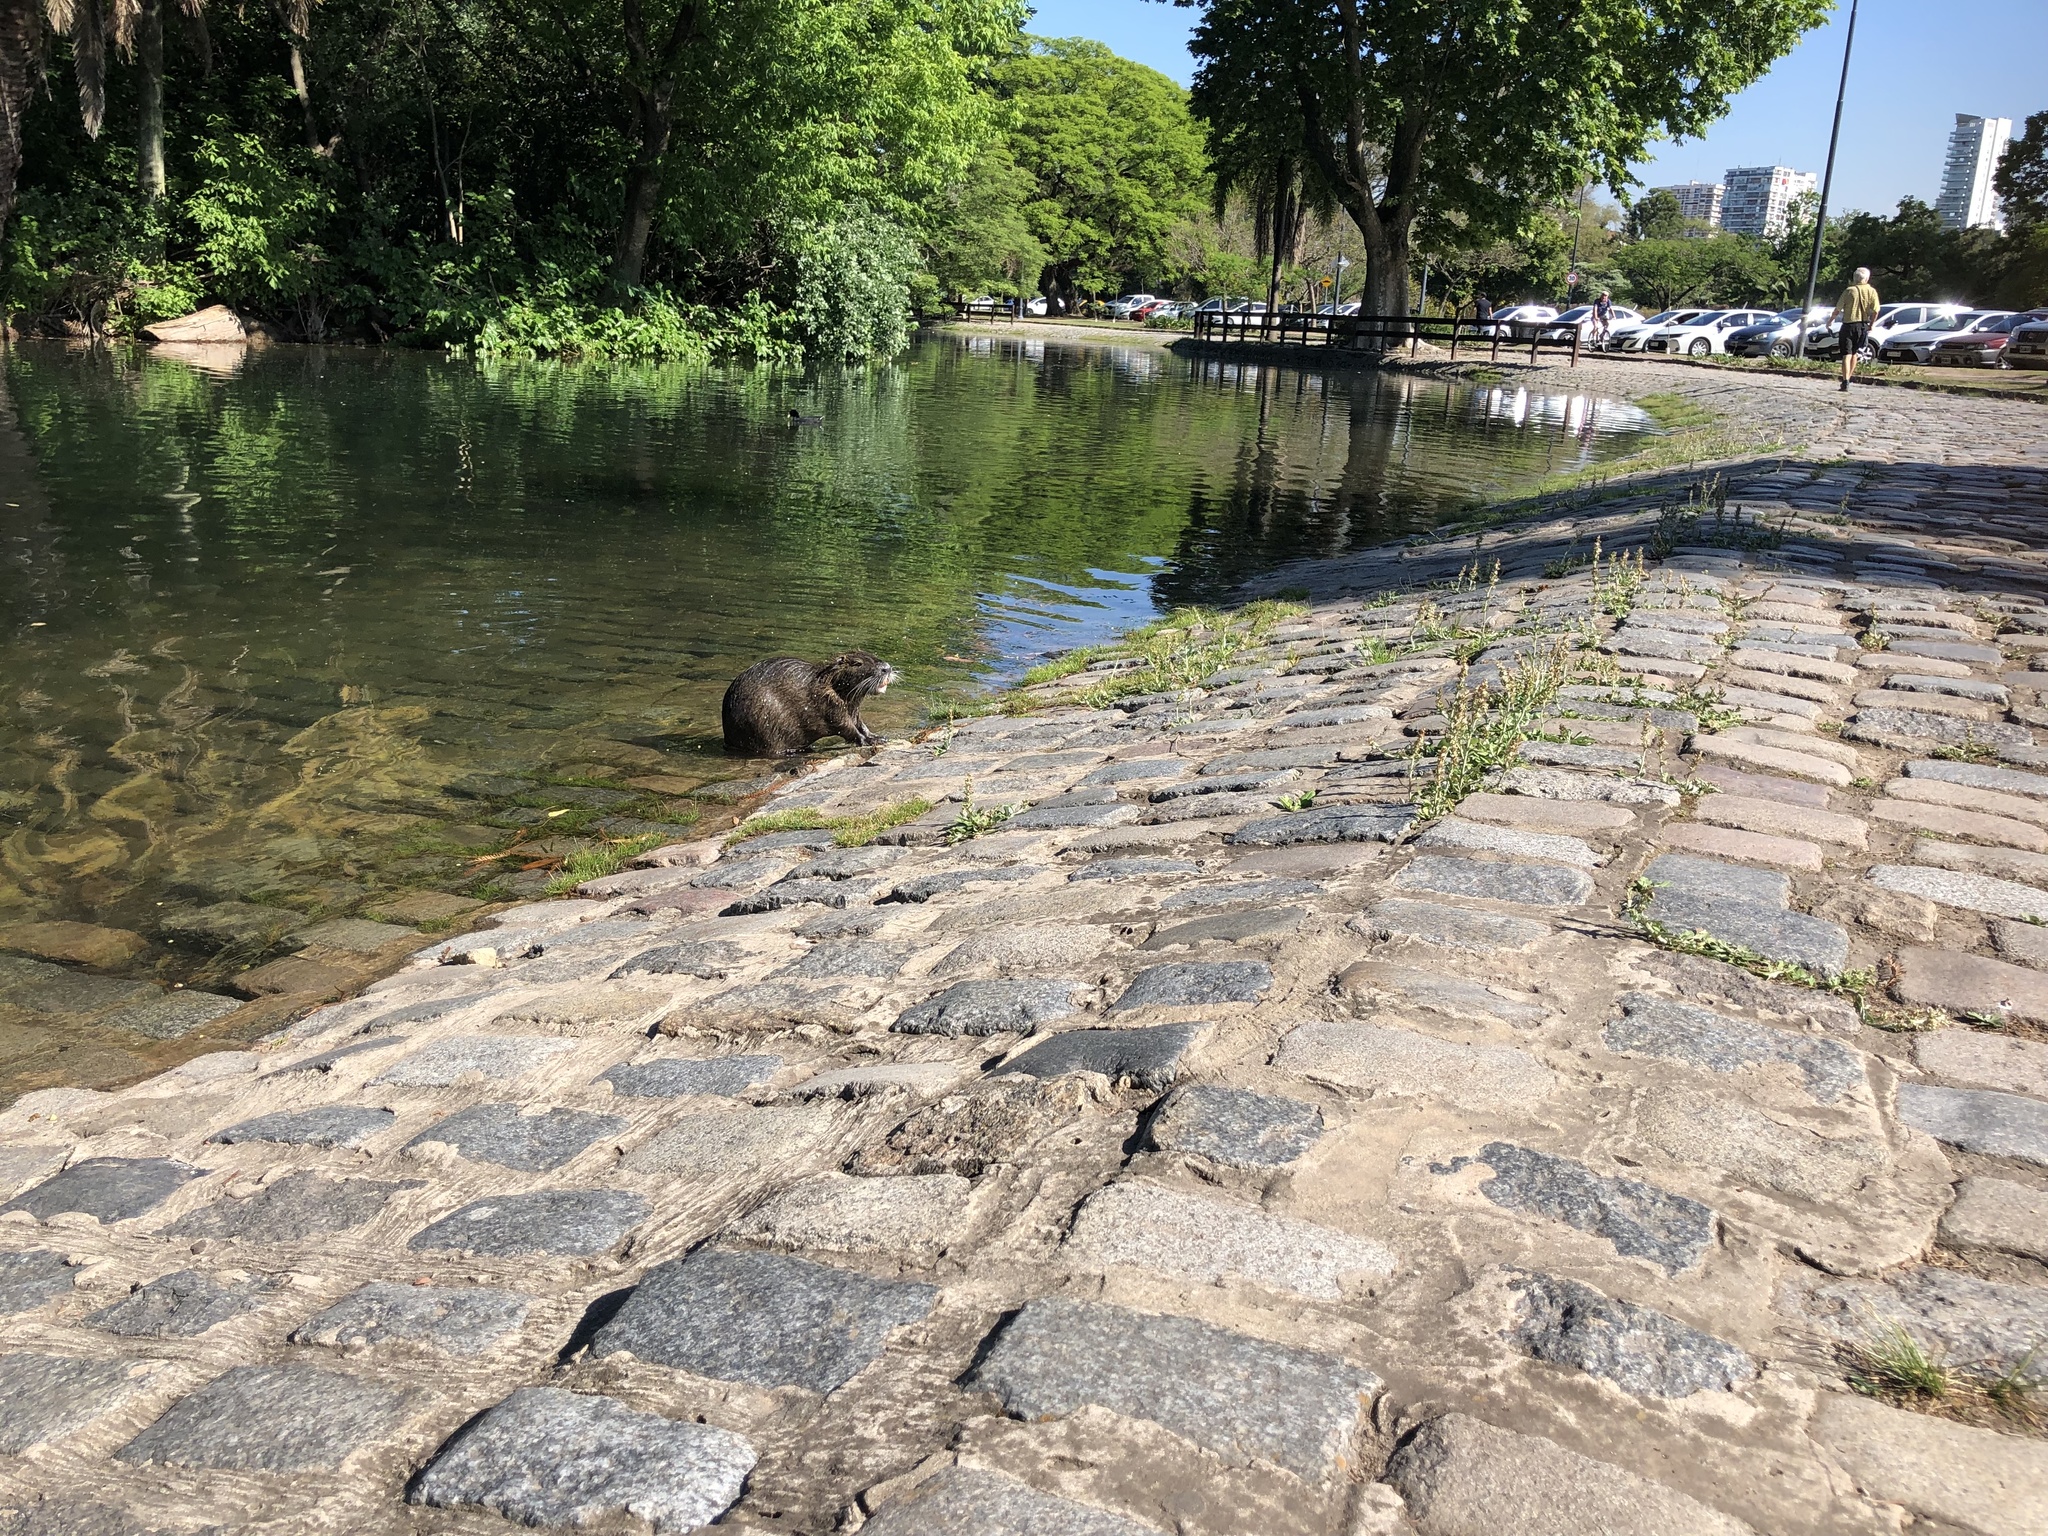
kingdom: Animalia
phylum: Chordata
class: Mammalia
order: Rodentia
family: Myocastoridae
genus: Myocastor
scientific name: Myocastor coypus
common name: Coypu
